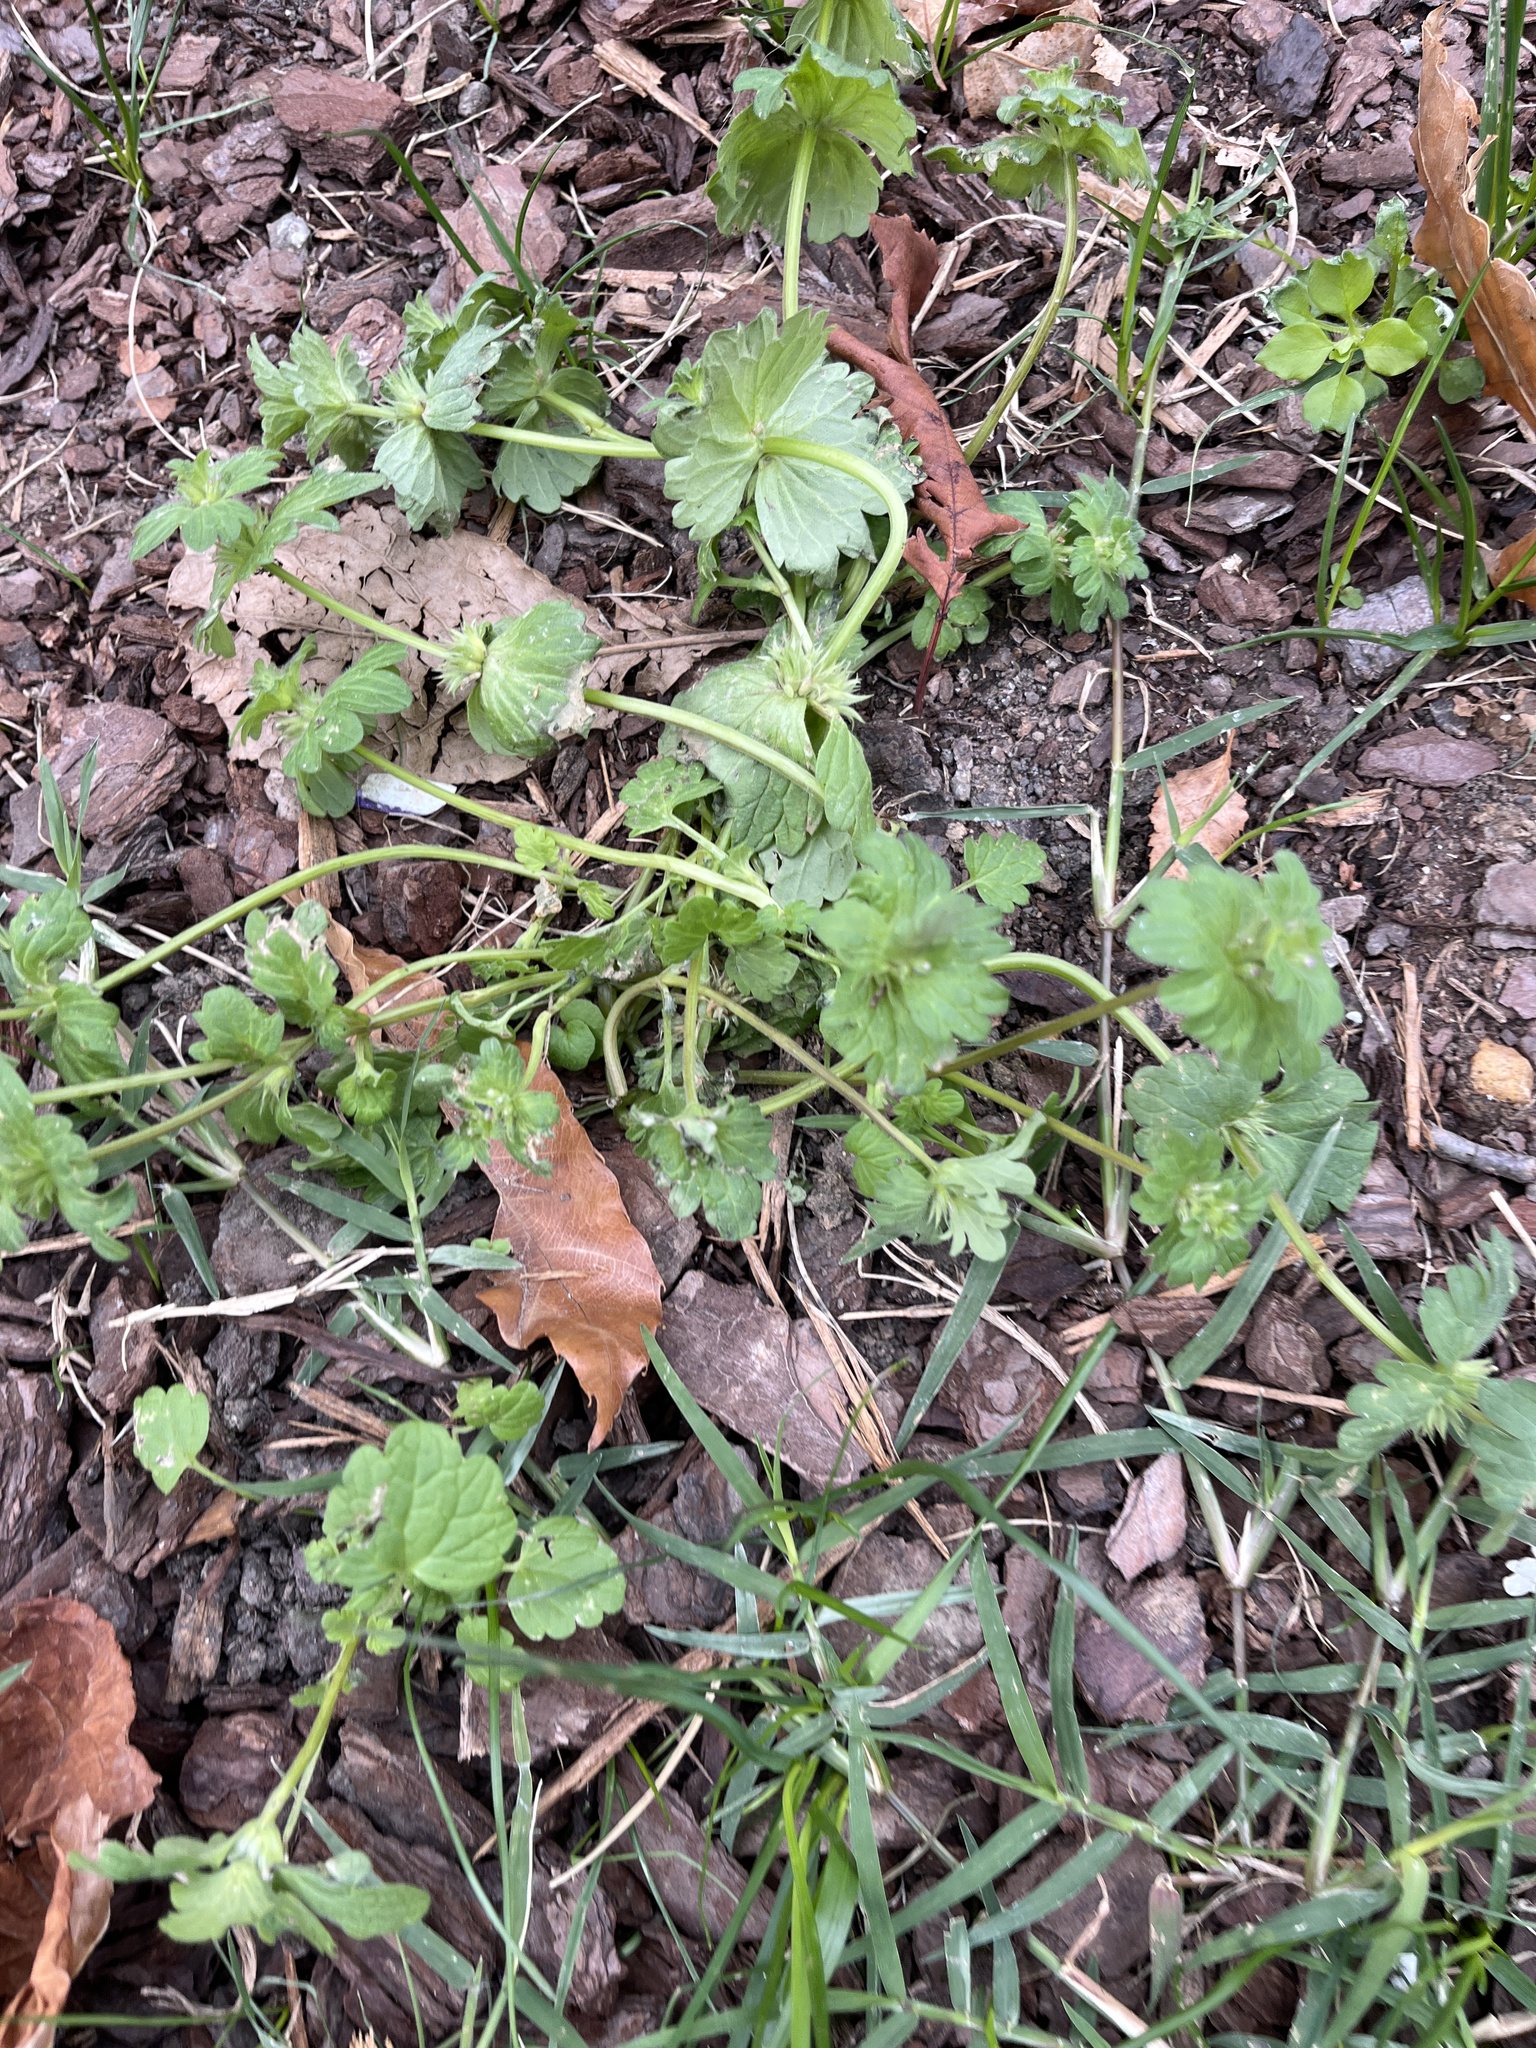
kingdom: Plantae
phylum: Tracheophyta
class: Magnoliopsida
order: Lamiales
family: Lamiaceae
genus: Lamium
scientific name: Lamium amplexicaule
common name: Henbit dead-nettle
